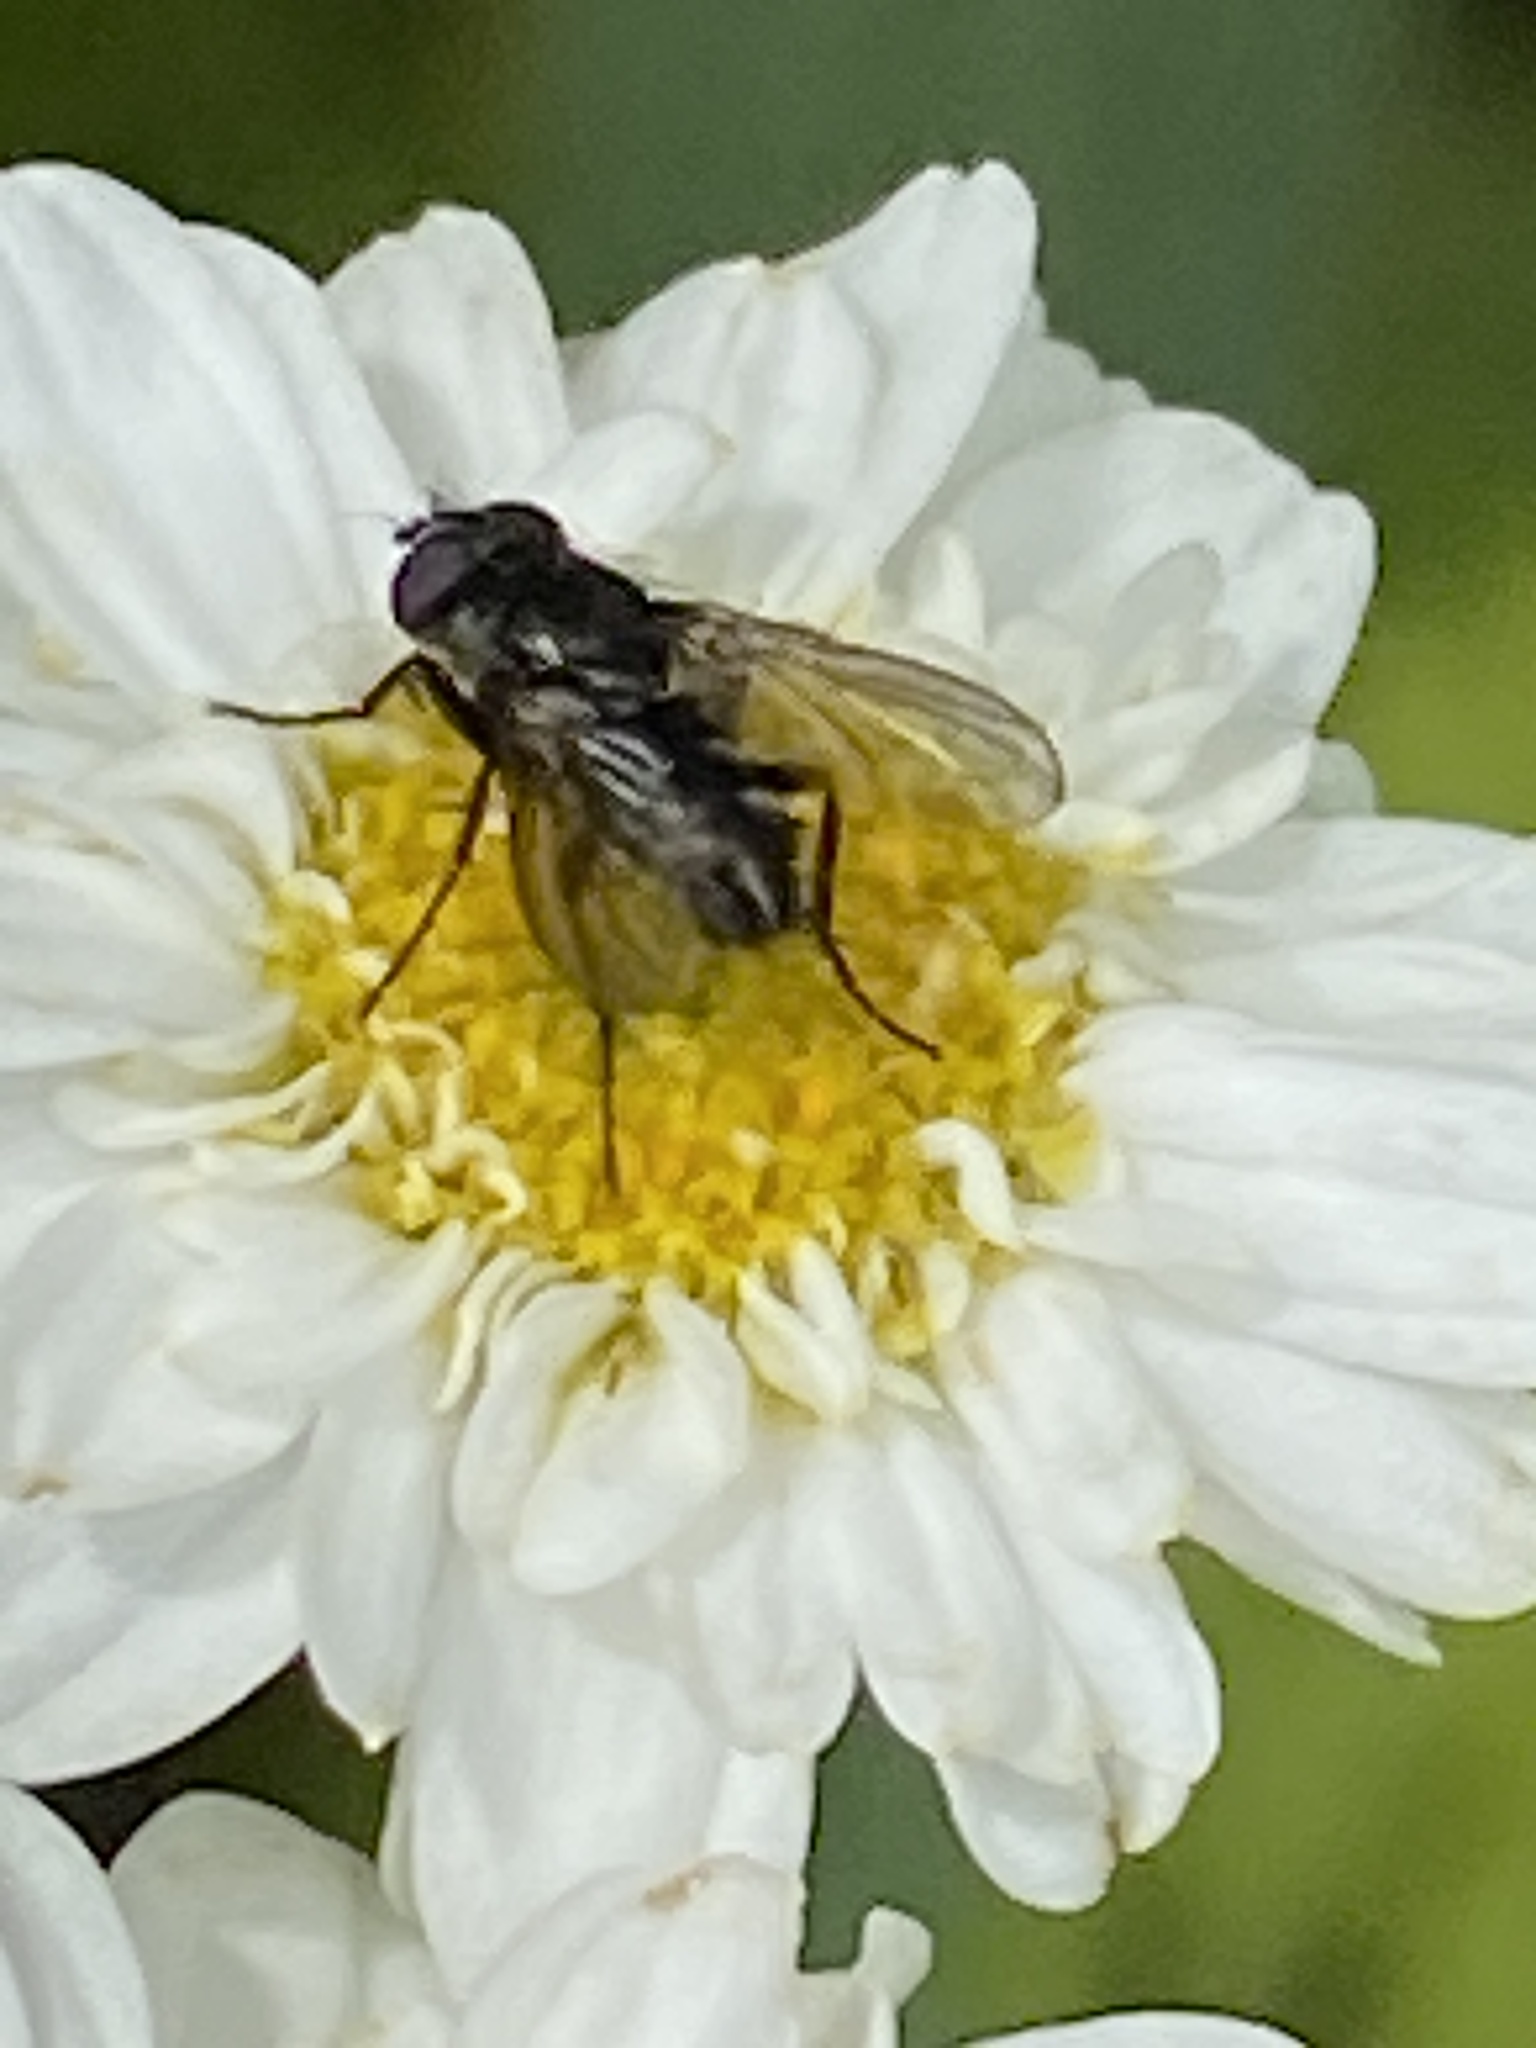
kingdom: Animalia
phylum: Arthropoda
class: Insecta
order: Diptera
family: Calliphoridae
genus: Rhinophora
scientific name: Rhinophora lepida
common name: Pouting woodlouse-fly
